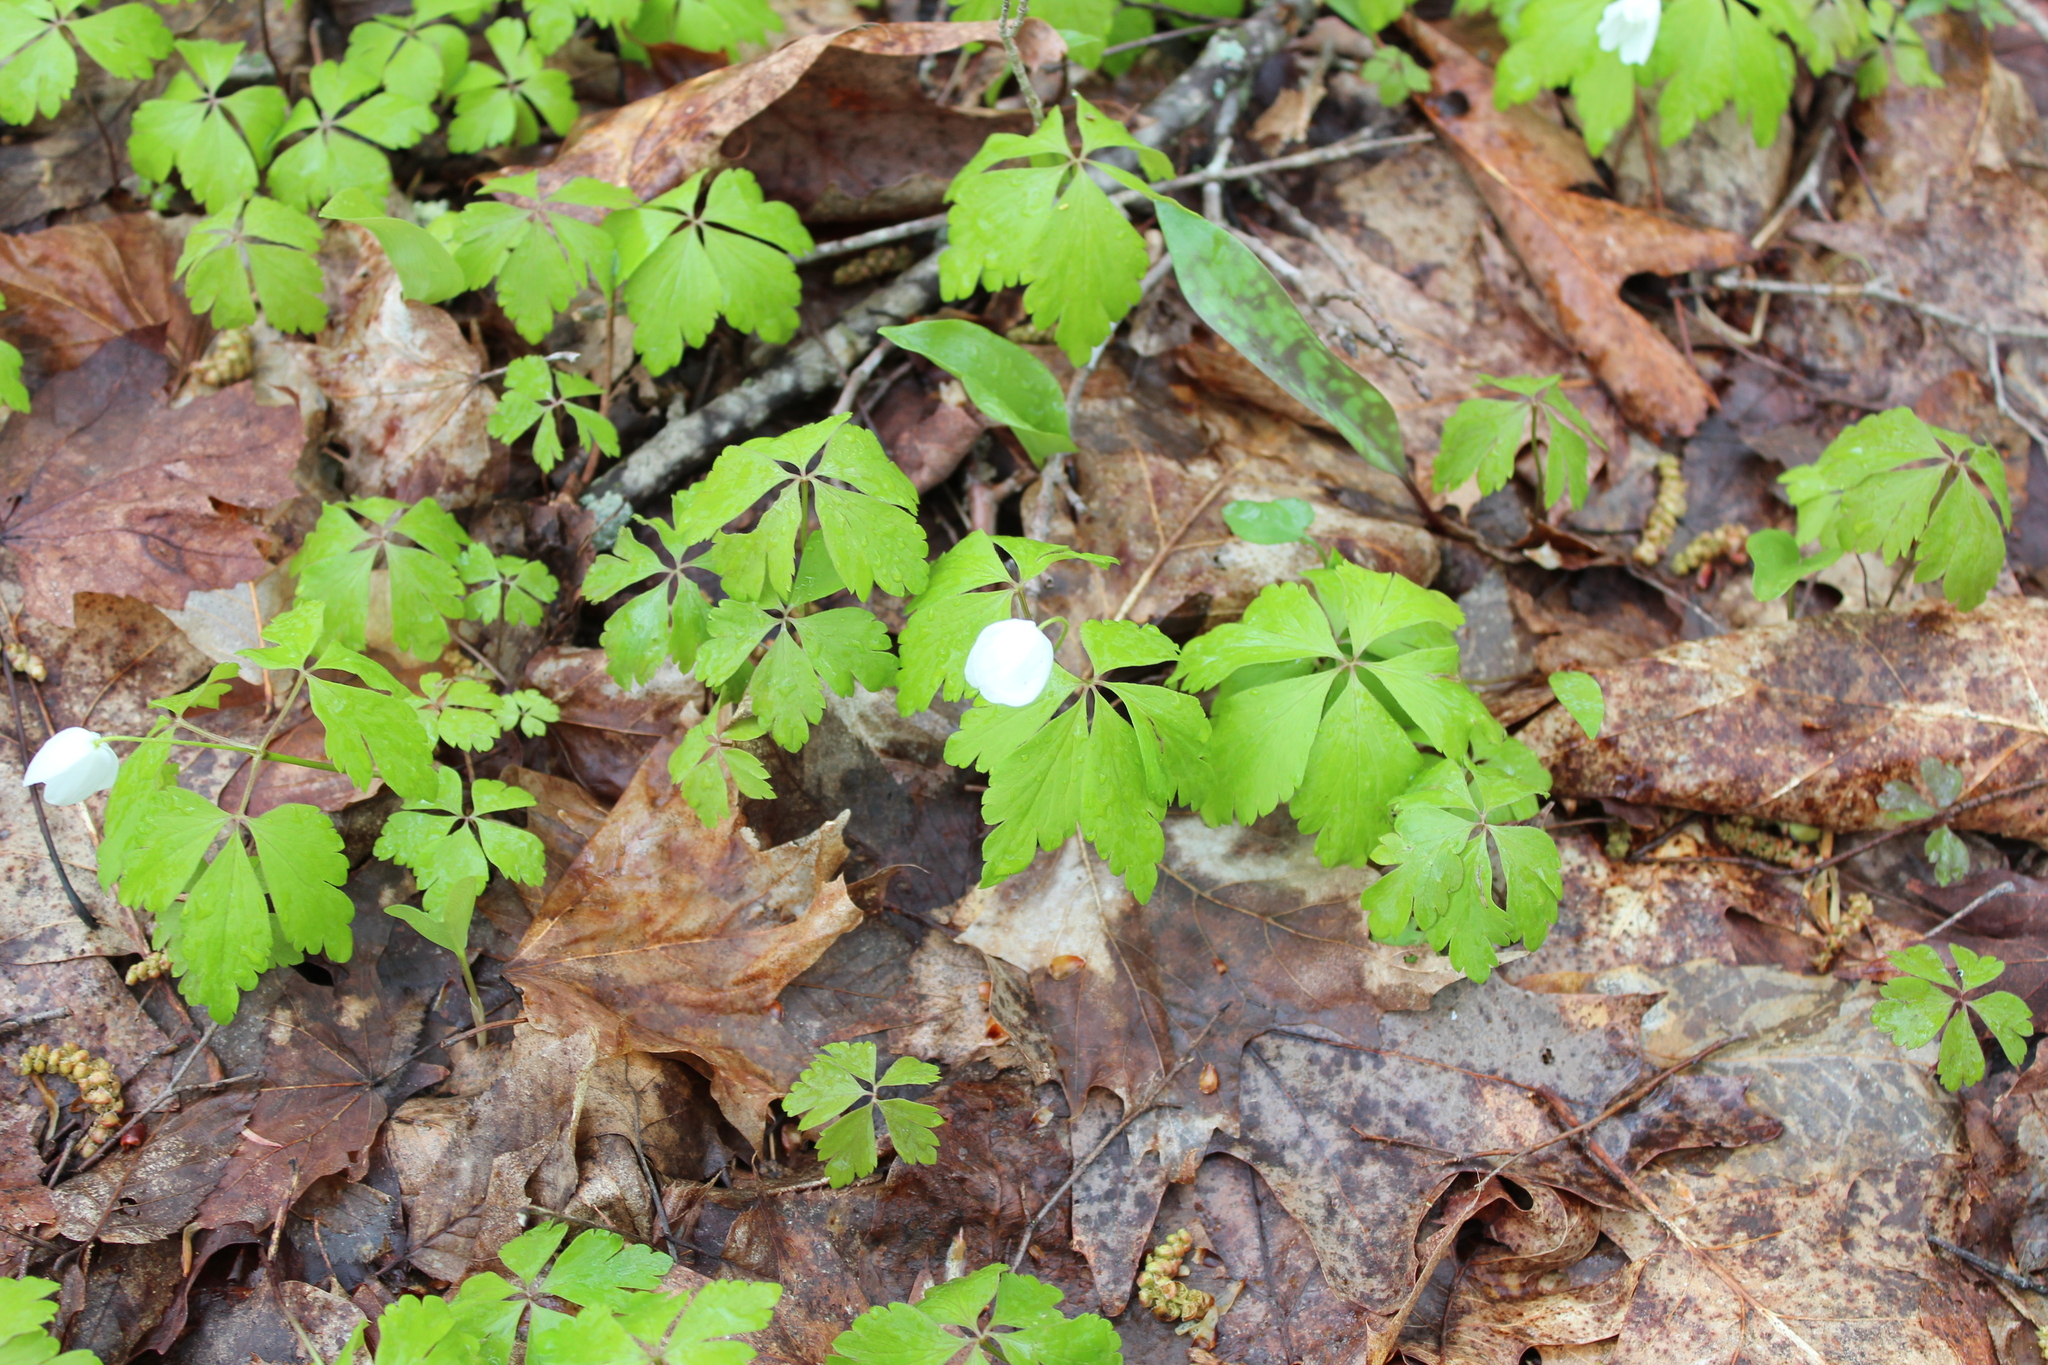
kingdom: Plantae
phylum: Tracheophyta
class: Magnoliopsida
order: Ranunculales
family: Ranunculaceae
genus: Anemone
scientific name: Anemone quinquefolia
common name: Wood anemone
